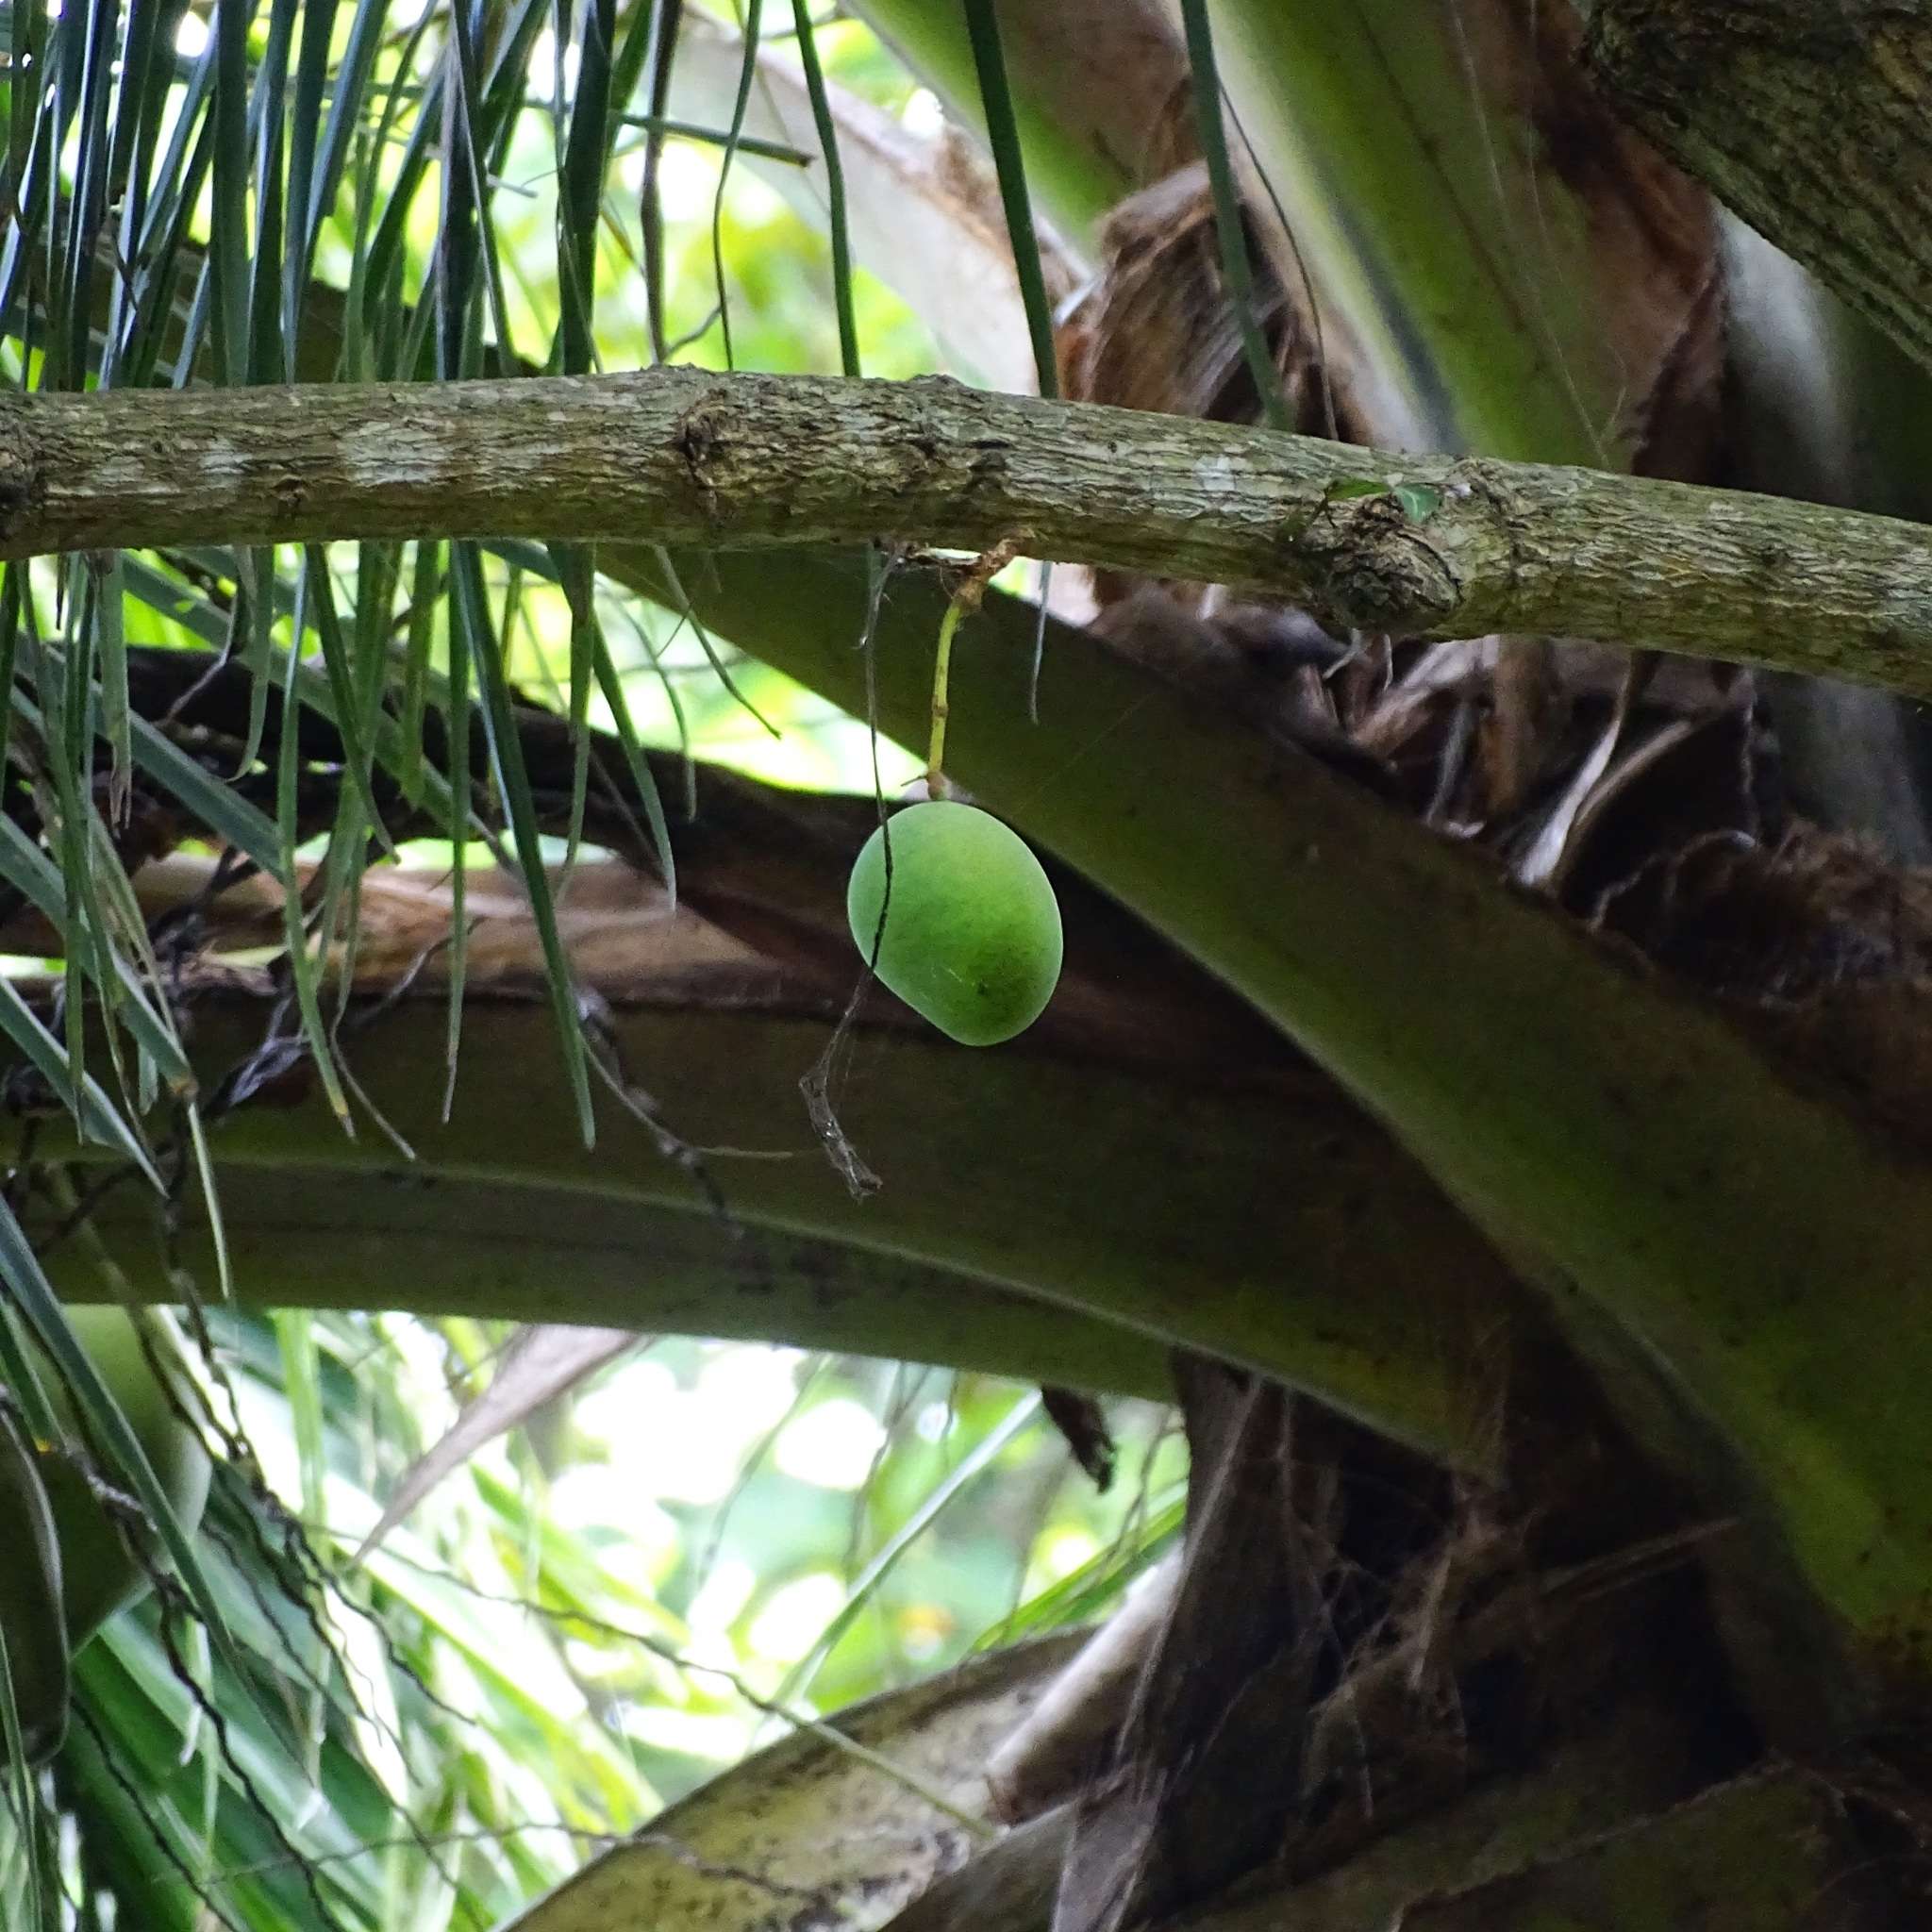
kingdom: Plantae
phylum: Tracheophyta
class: Magnoliopsida
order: Sapindales
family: Anacardiaceae
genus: Mangifera
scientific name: Mangifera indica
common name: Mango
